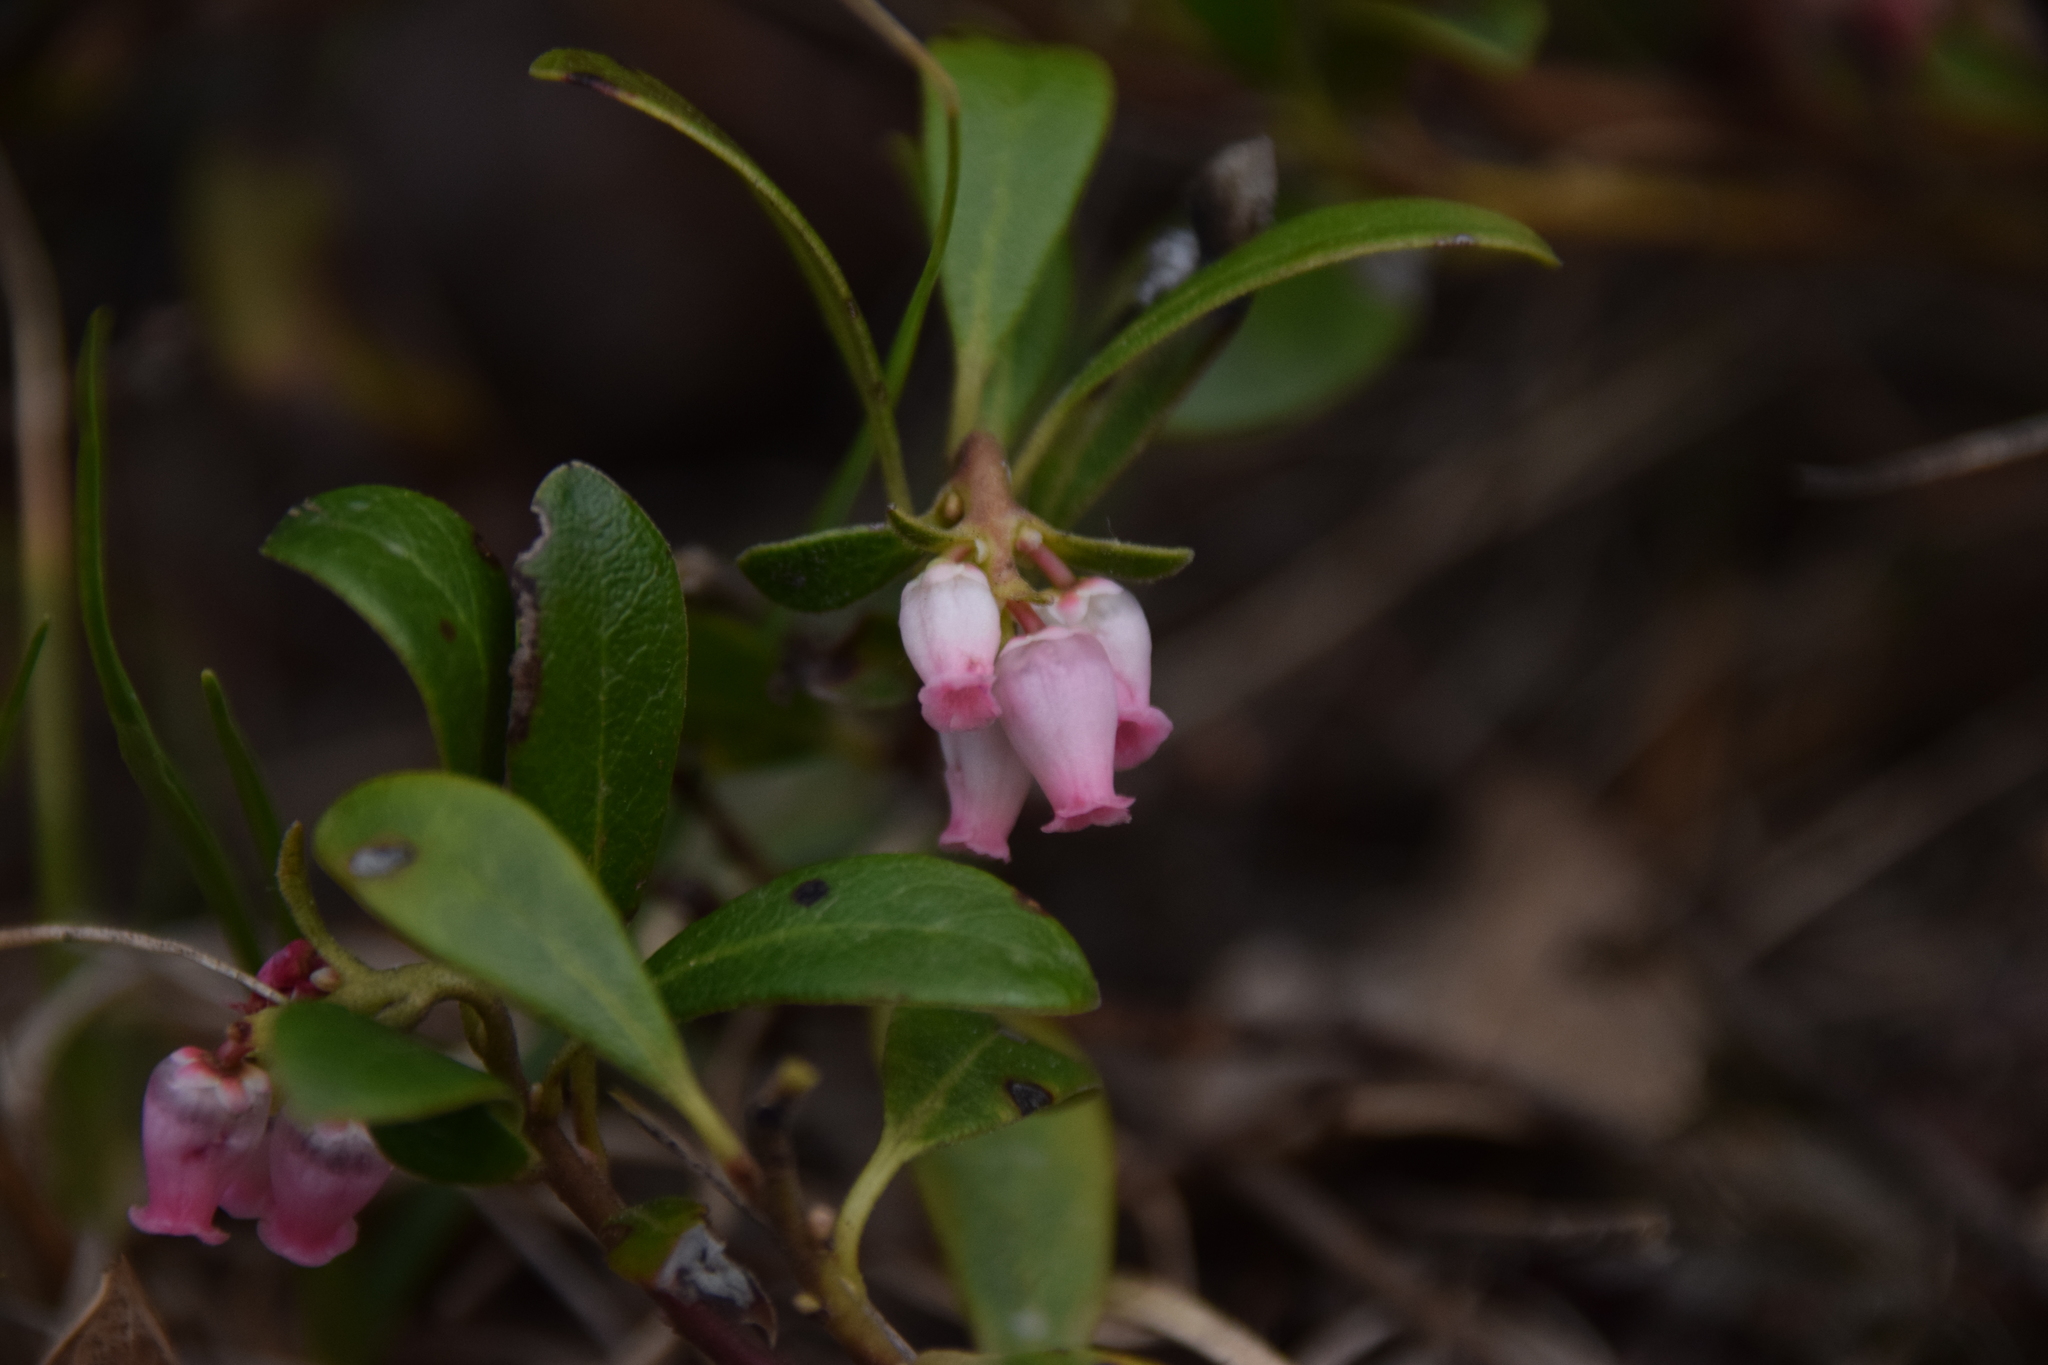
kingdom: Plantae
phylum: Tracheophyta
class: Magnoliopsida
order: Ericales
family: Ericaceae
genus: Arctostaphylos
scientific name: Arctostaphylos uva-ursi
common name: Bearberry
